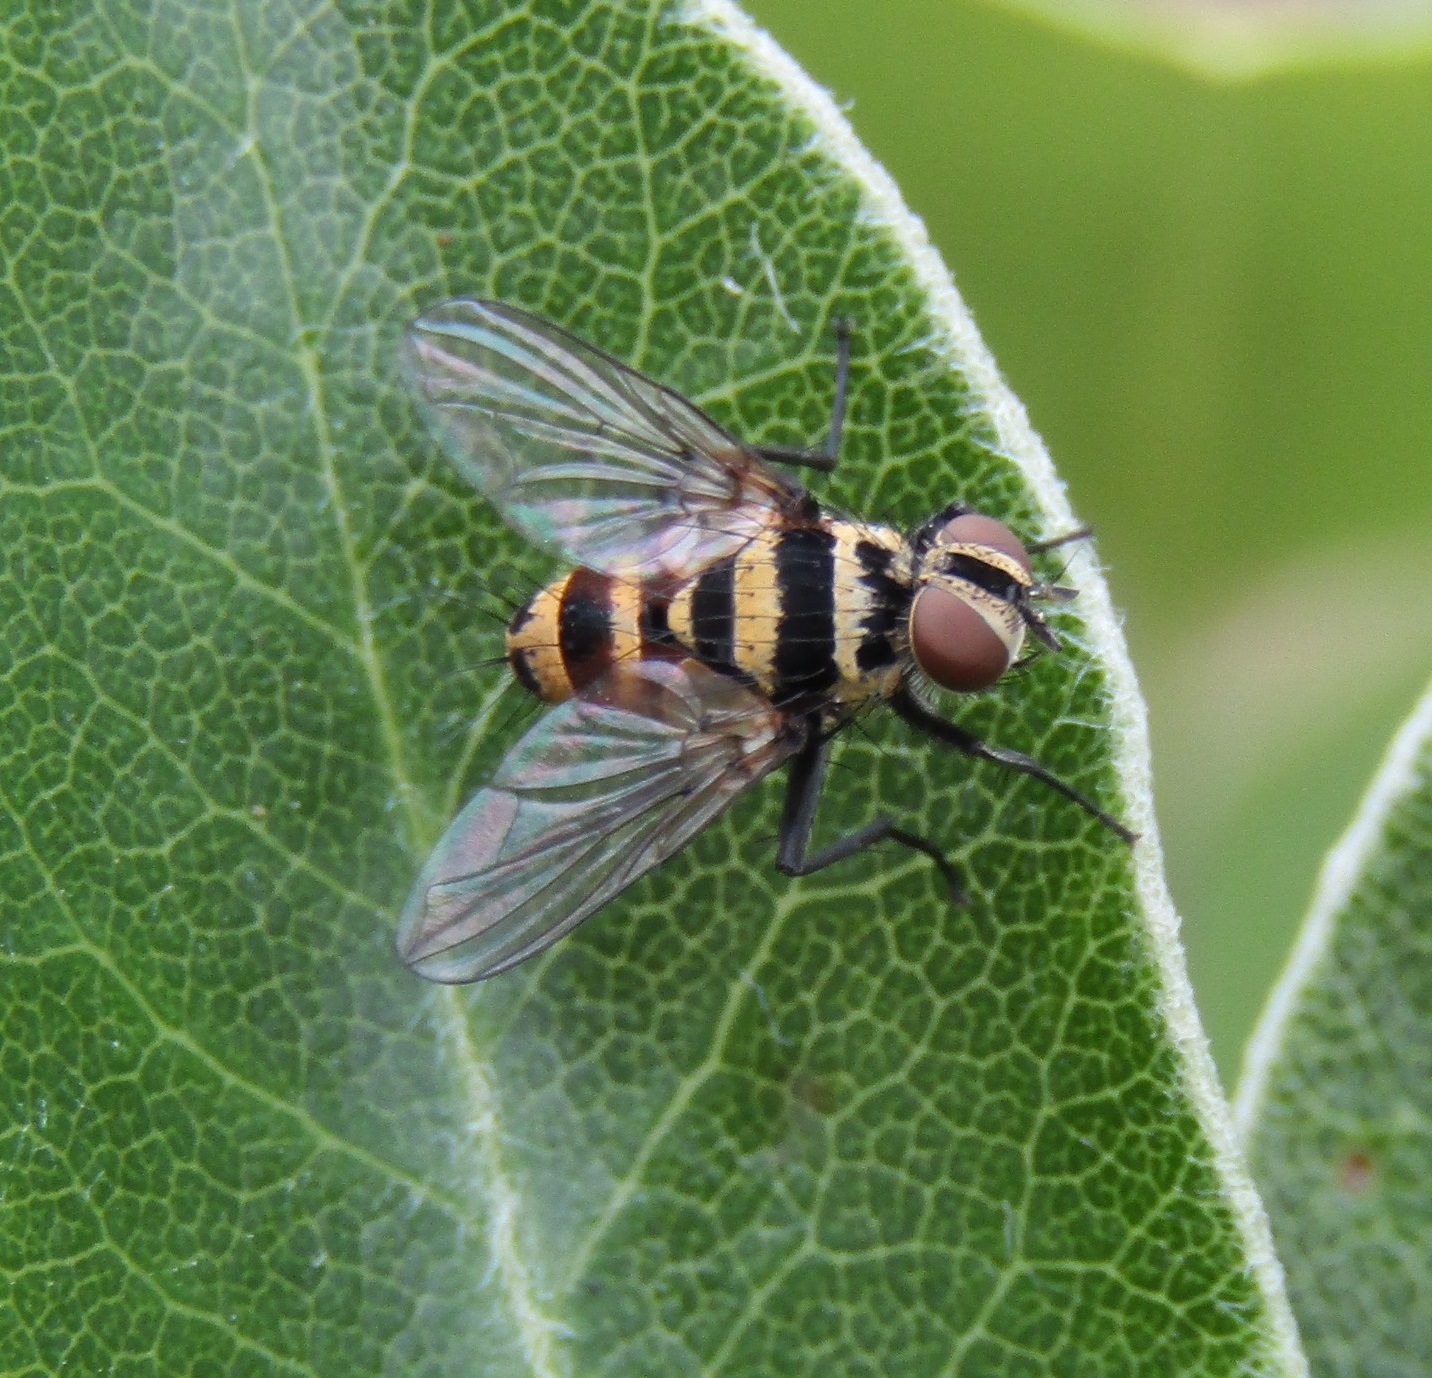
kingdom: Animalia
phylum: Arthropoda
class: Insecta
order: Diptera
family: Tachinidae
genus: Trigonospila
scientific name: Trigonospila brevifacies
